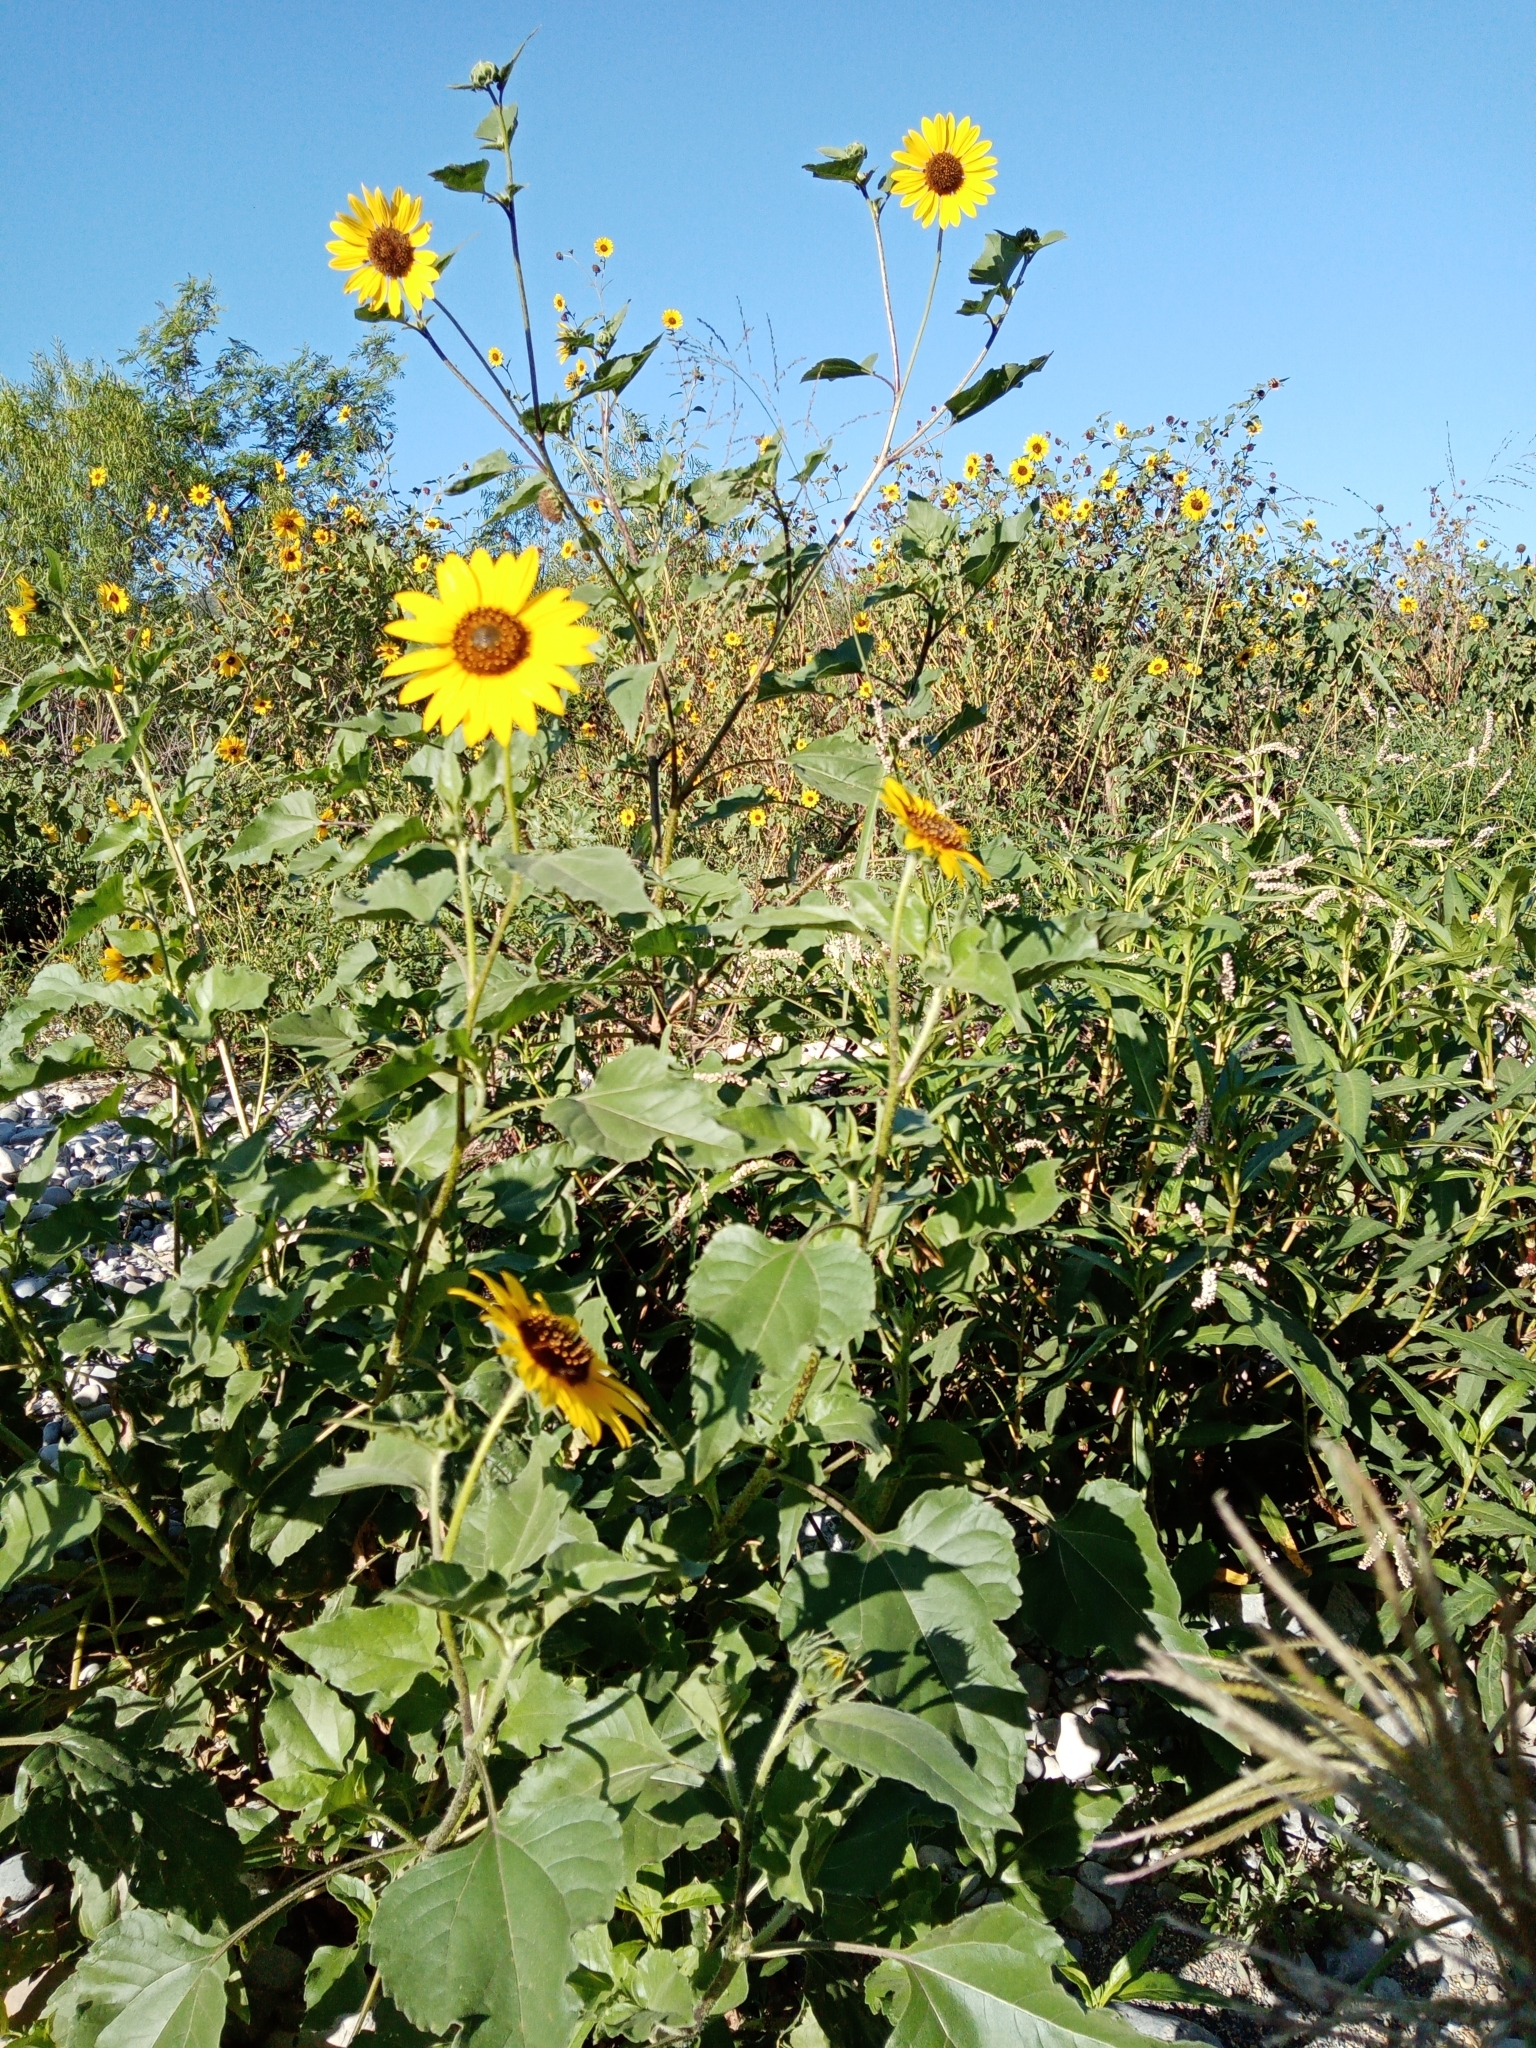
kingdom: Plantae
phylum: Tracheophyta
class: Magnoliopsida
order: Asterales
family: Asteraceae
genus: Helianthus
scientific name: Helianthus annuus
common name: Sunflower
